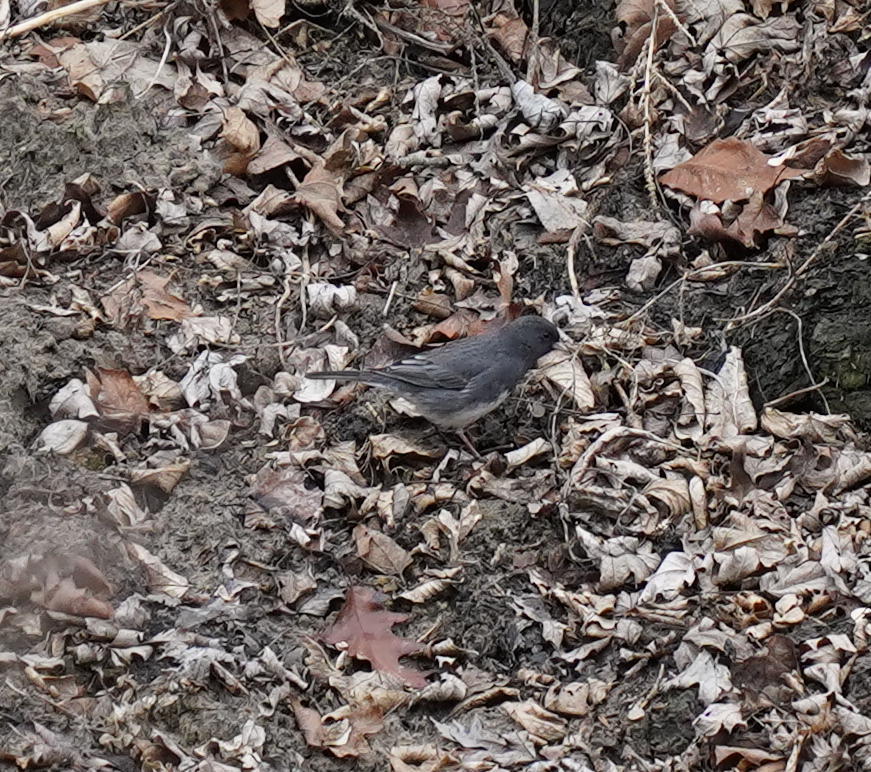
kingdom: Animalia
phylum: Chordata
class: Aves
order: Passeriformes
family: Passerellidae
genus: Junco
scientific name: Junco hyemalis
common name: Dark-eyed junco
